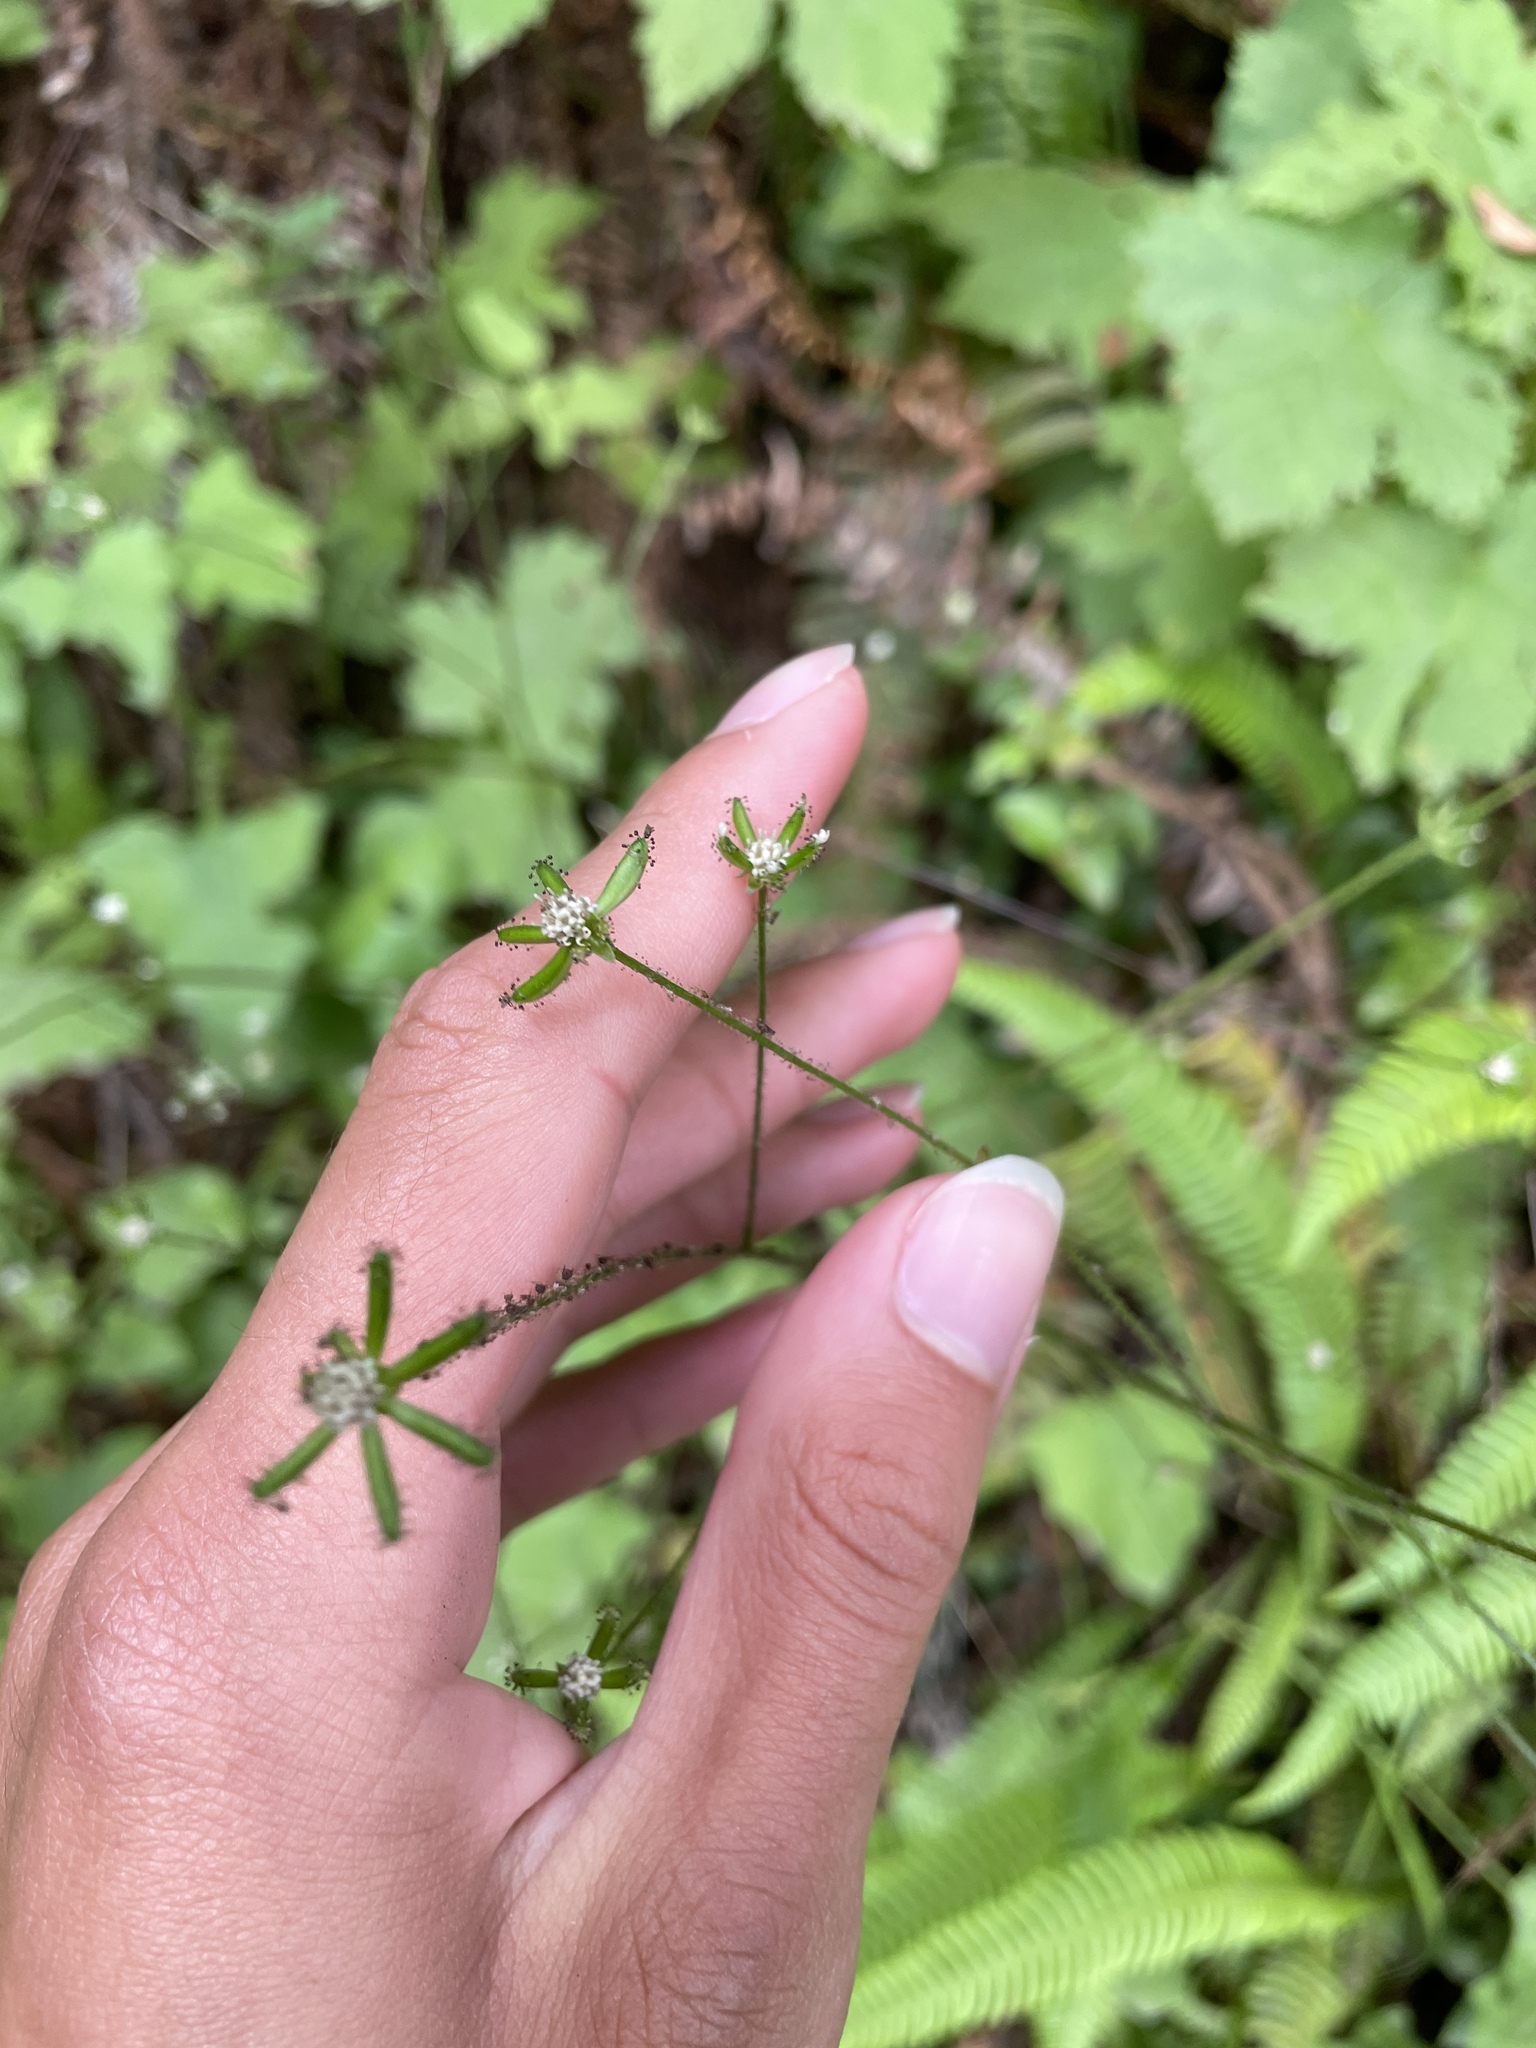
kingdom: Plantae
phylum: Tracheophyta
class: Magnoliopsida
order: Asterales
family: Asteraceae
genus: Adenocaulon
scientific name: Adenocaulon bicolor
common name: Trailplant
